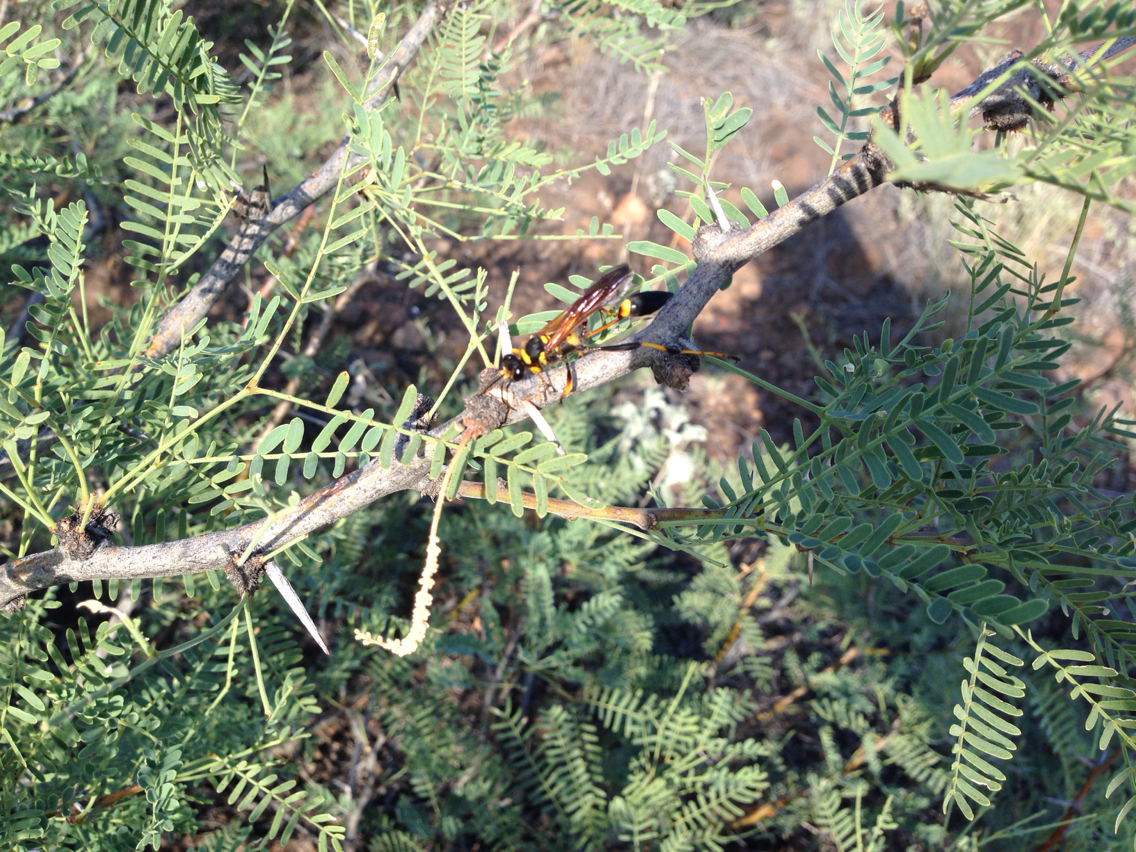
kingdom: Animalia
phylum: Arthropoda
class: Insecta
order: Hymenoptera
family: Sphecidae
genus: Sceliphron
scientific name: Sceliphron caementarium
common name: Mud dauber
